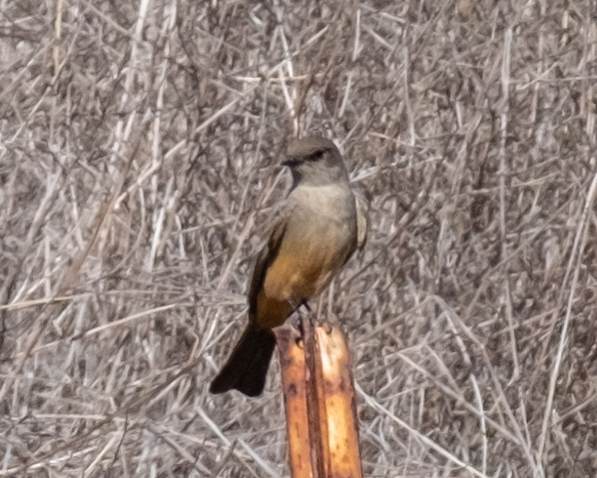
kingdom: Animalia
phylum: Chordata
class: Aves
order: Passeriformes
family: Tyrannidae
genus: Sayornis
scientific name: Sayornis saya
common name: Say's phoebe
